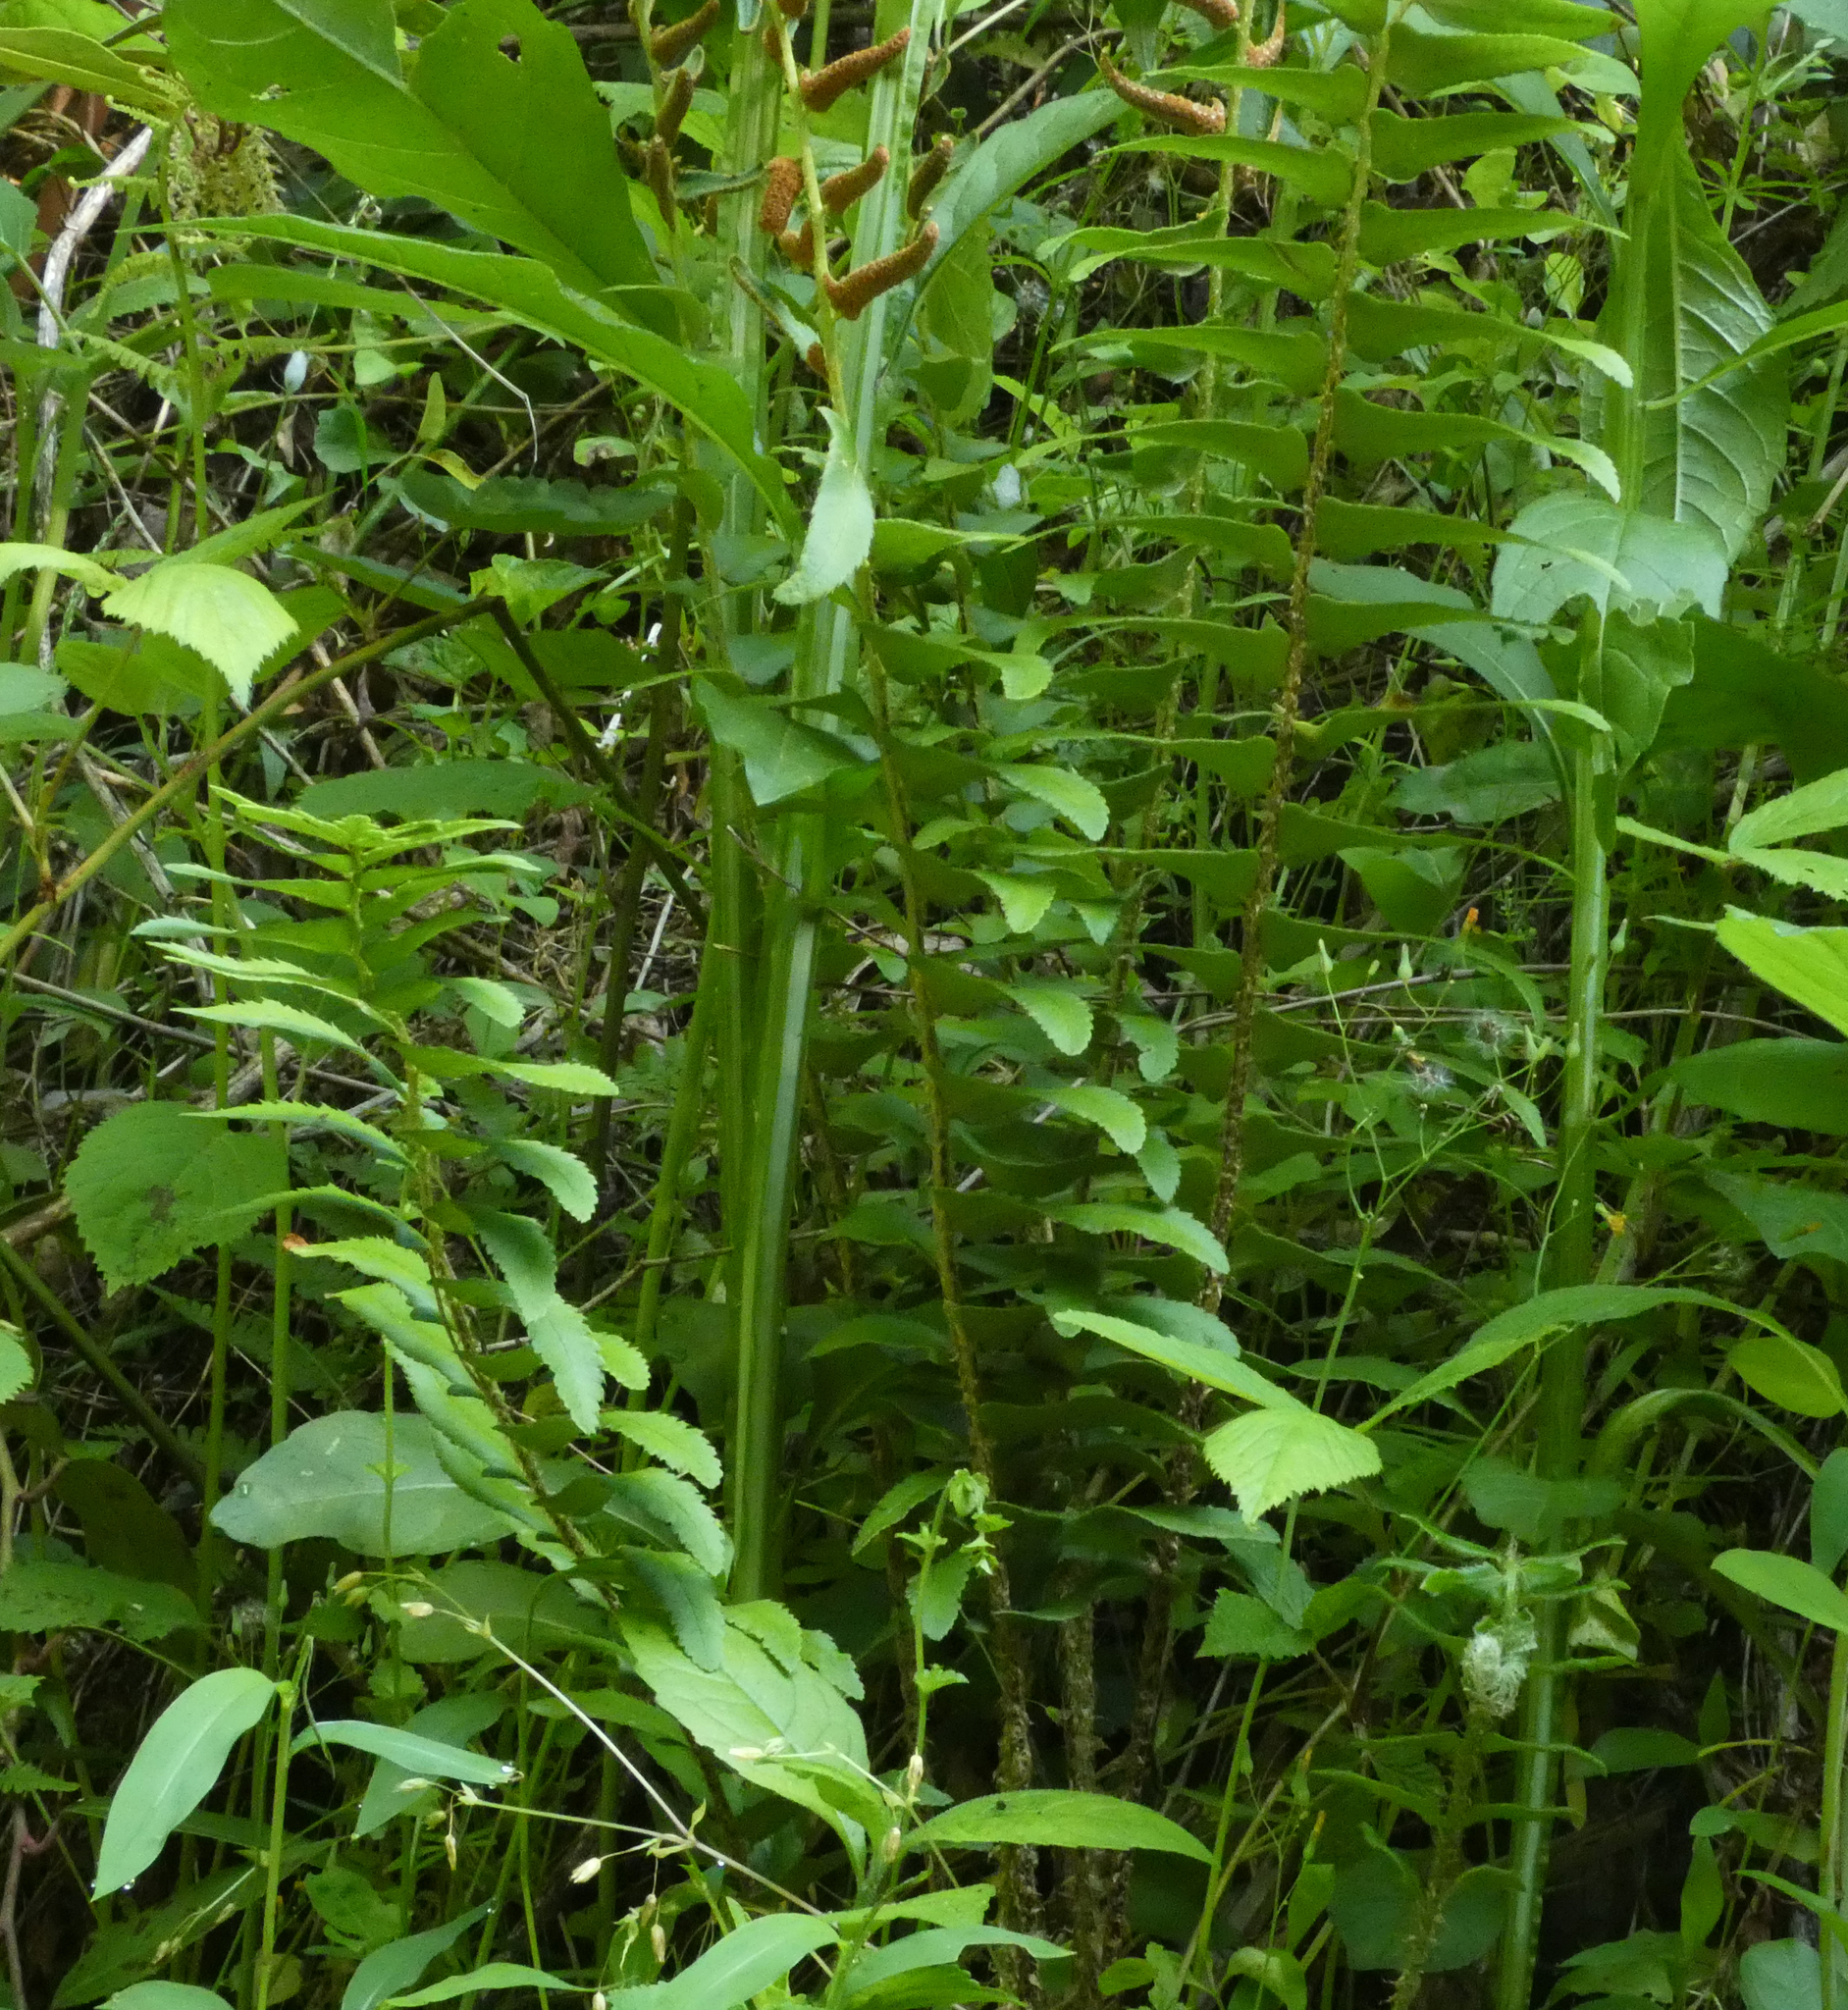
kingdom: Plantae
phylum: Tracheophyta
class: Polypodiopsida
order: Polypodiales
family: Dryopteridaceae
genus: Polystichum
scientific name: Polystichum acrostichoides
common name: Christmas fern
